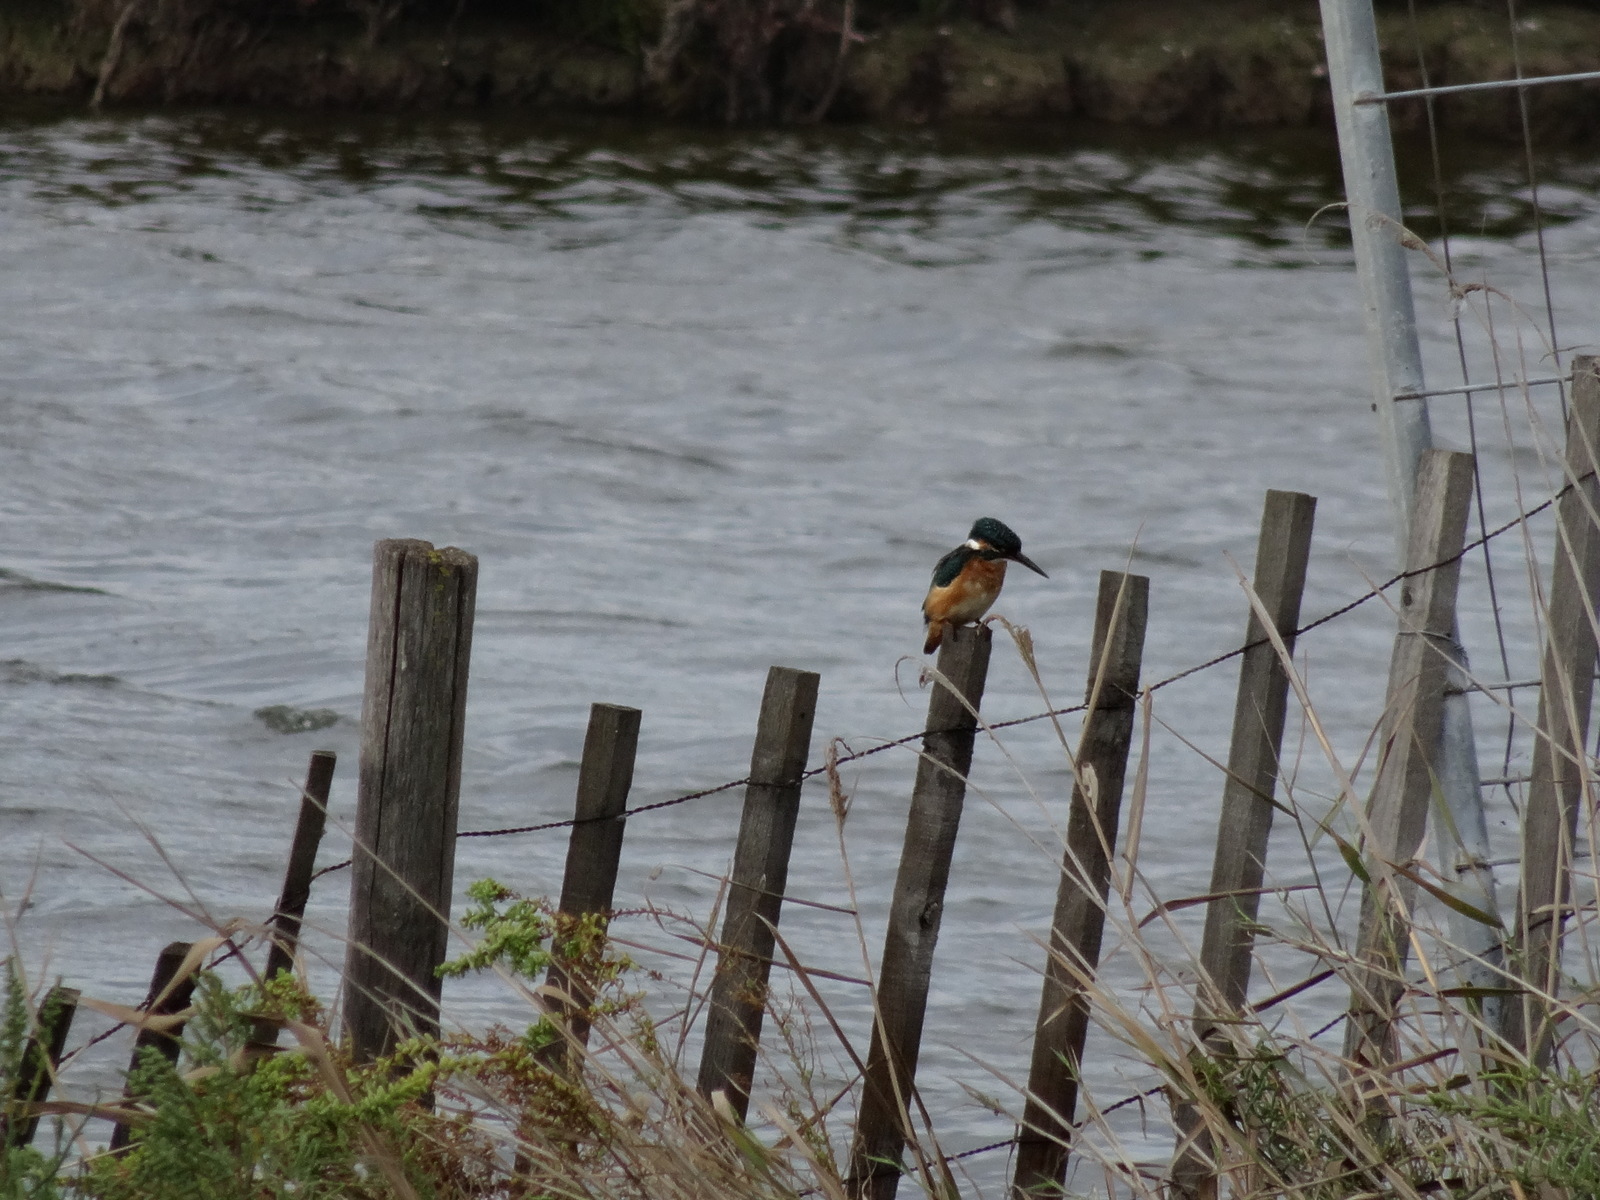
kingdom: Animalia
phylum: Chordata
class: Aves
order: Coraciiformes
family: Alcedinidae
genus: Alcedo
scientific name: Alcedo atthis
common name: Common kingfisher
